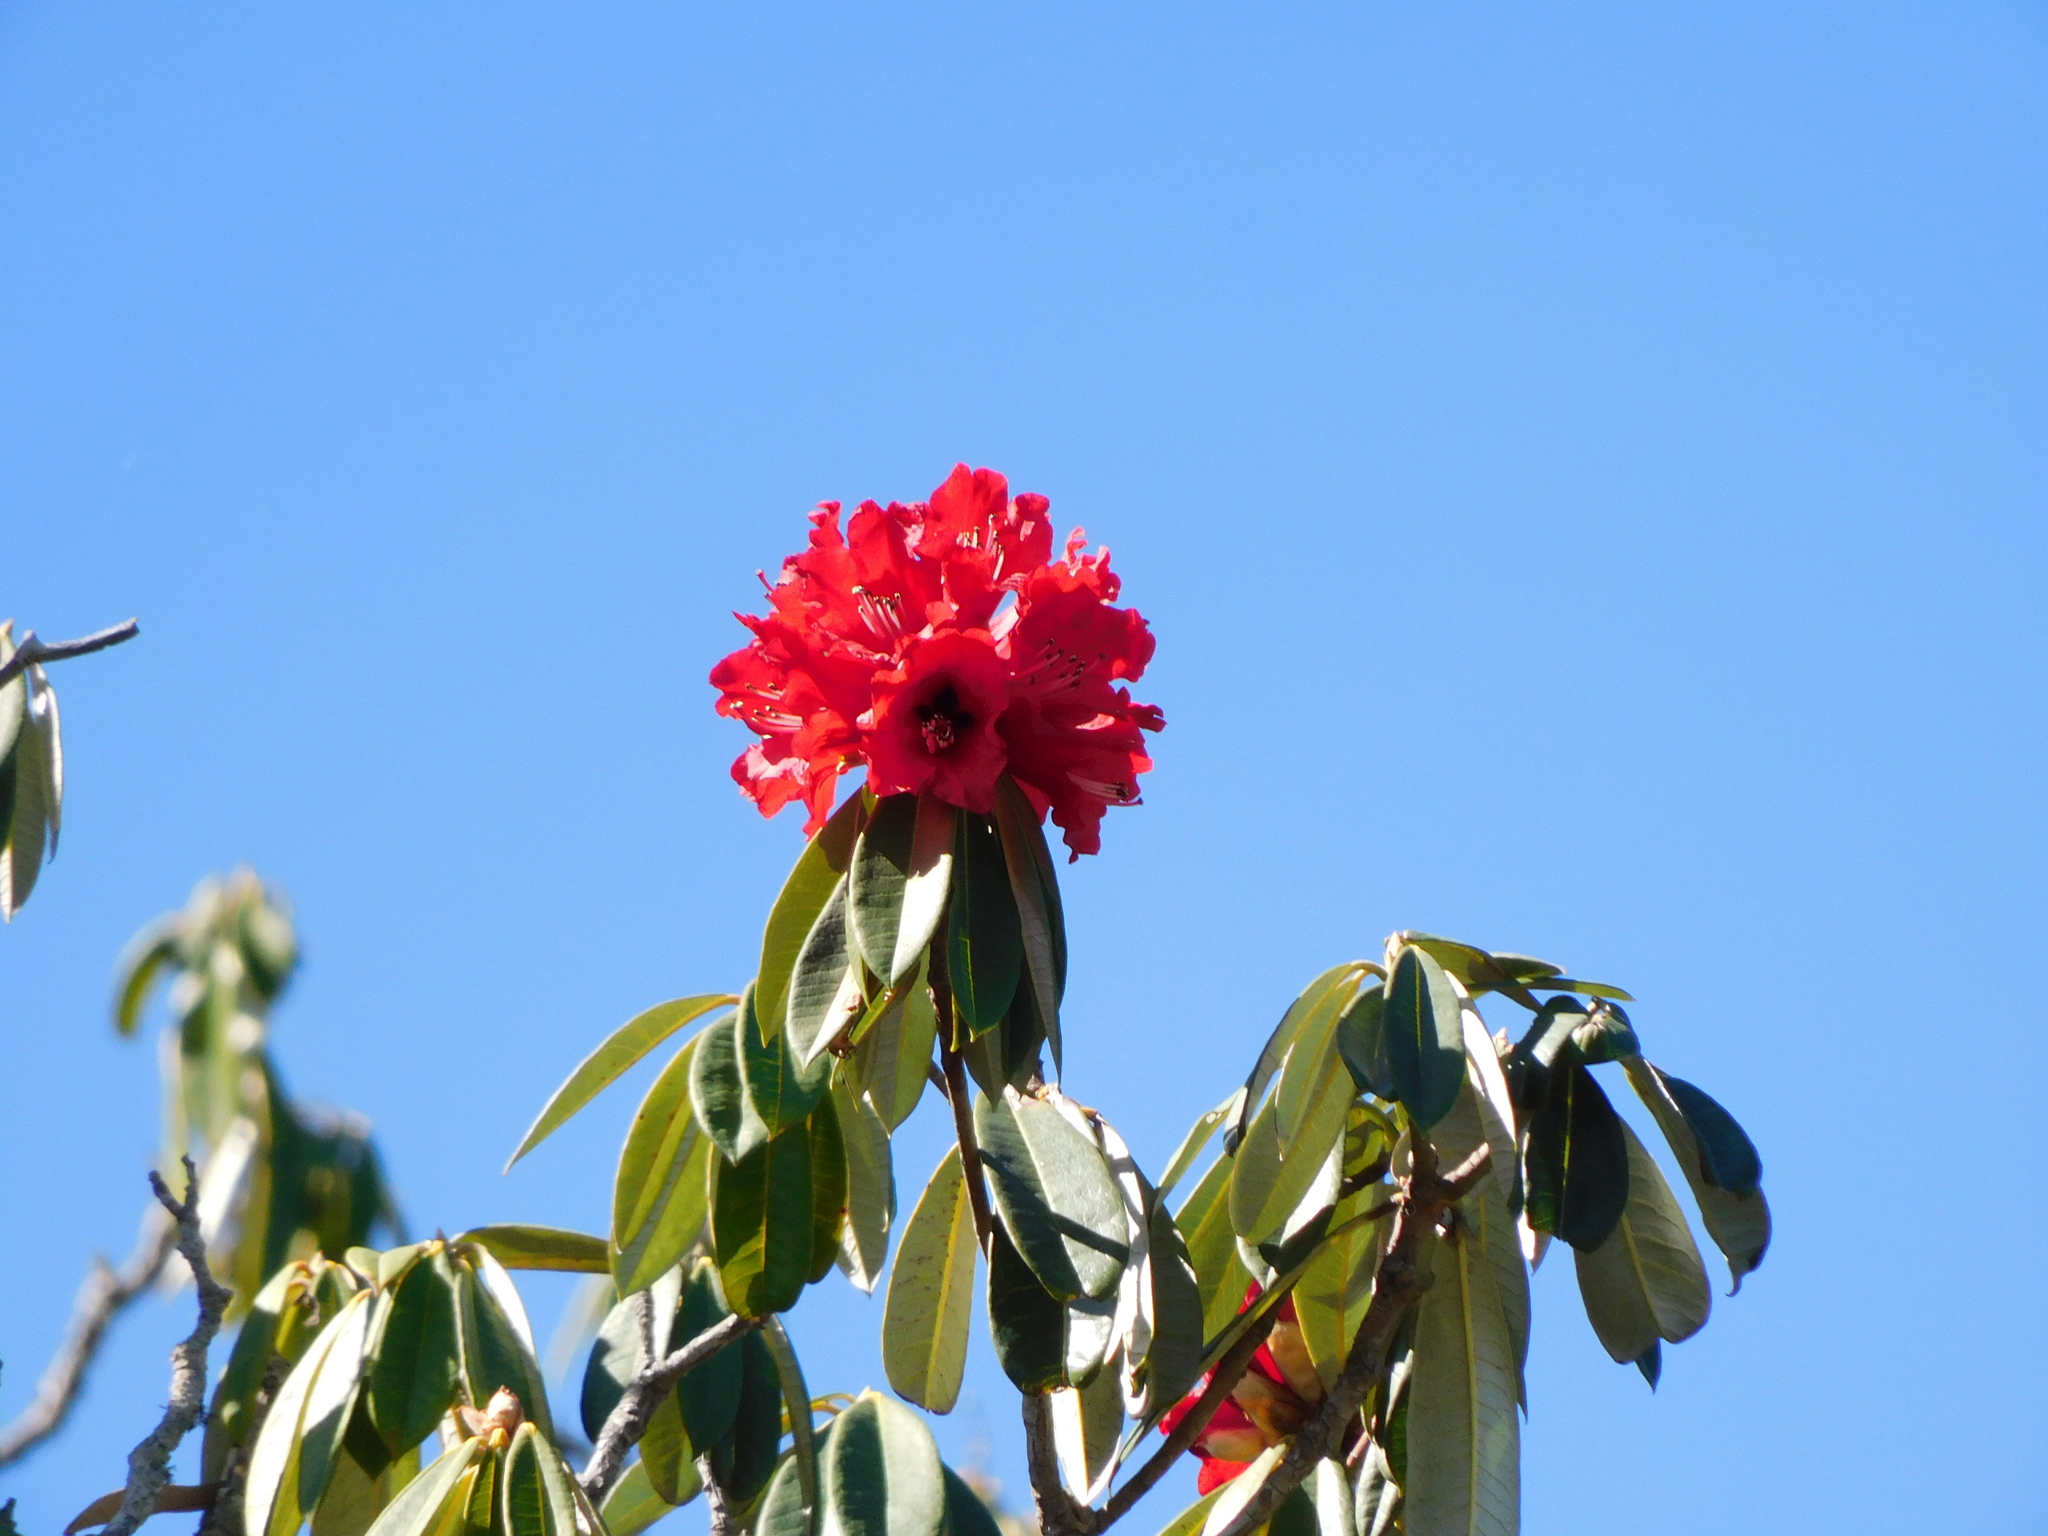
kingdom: Plantae
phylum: Tracheophyta
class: Magnoliopsida
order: Ericales
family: Ericaceae
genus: Rhododendron
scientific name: Rhododendron arboreum
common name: Tree rhododendron
